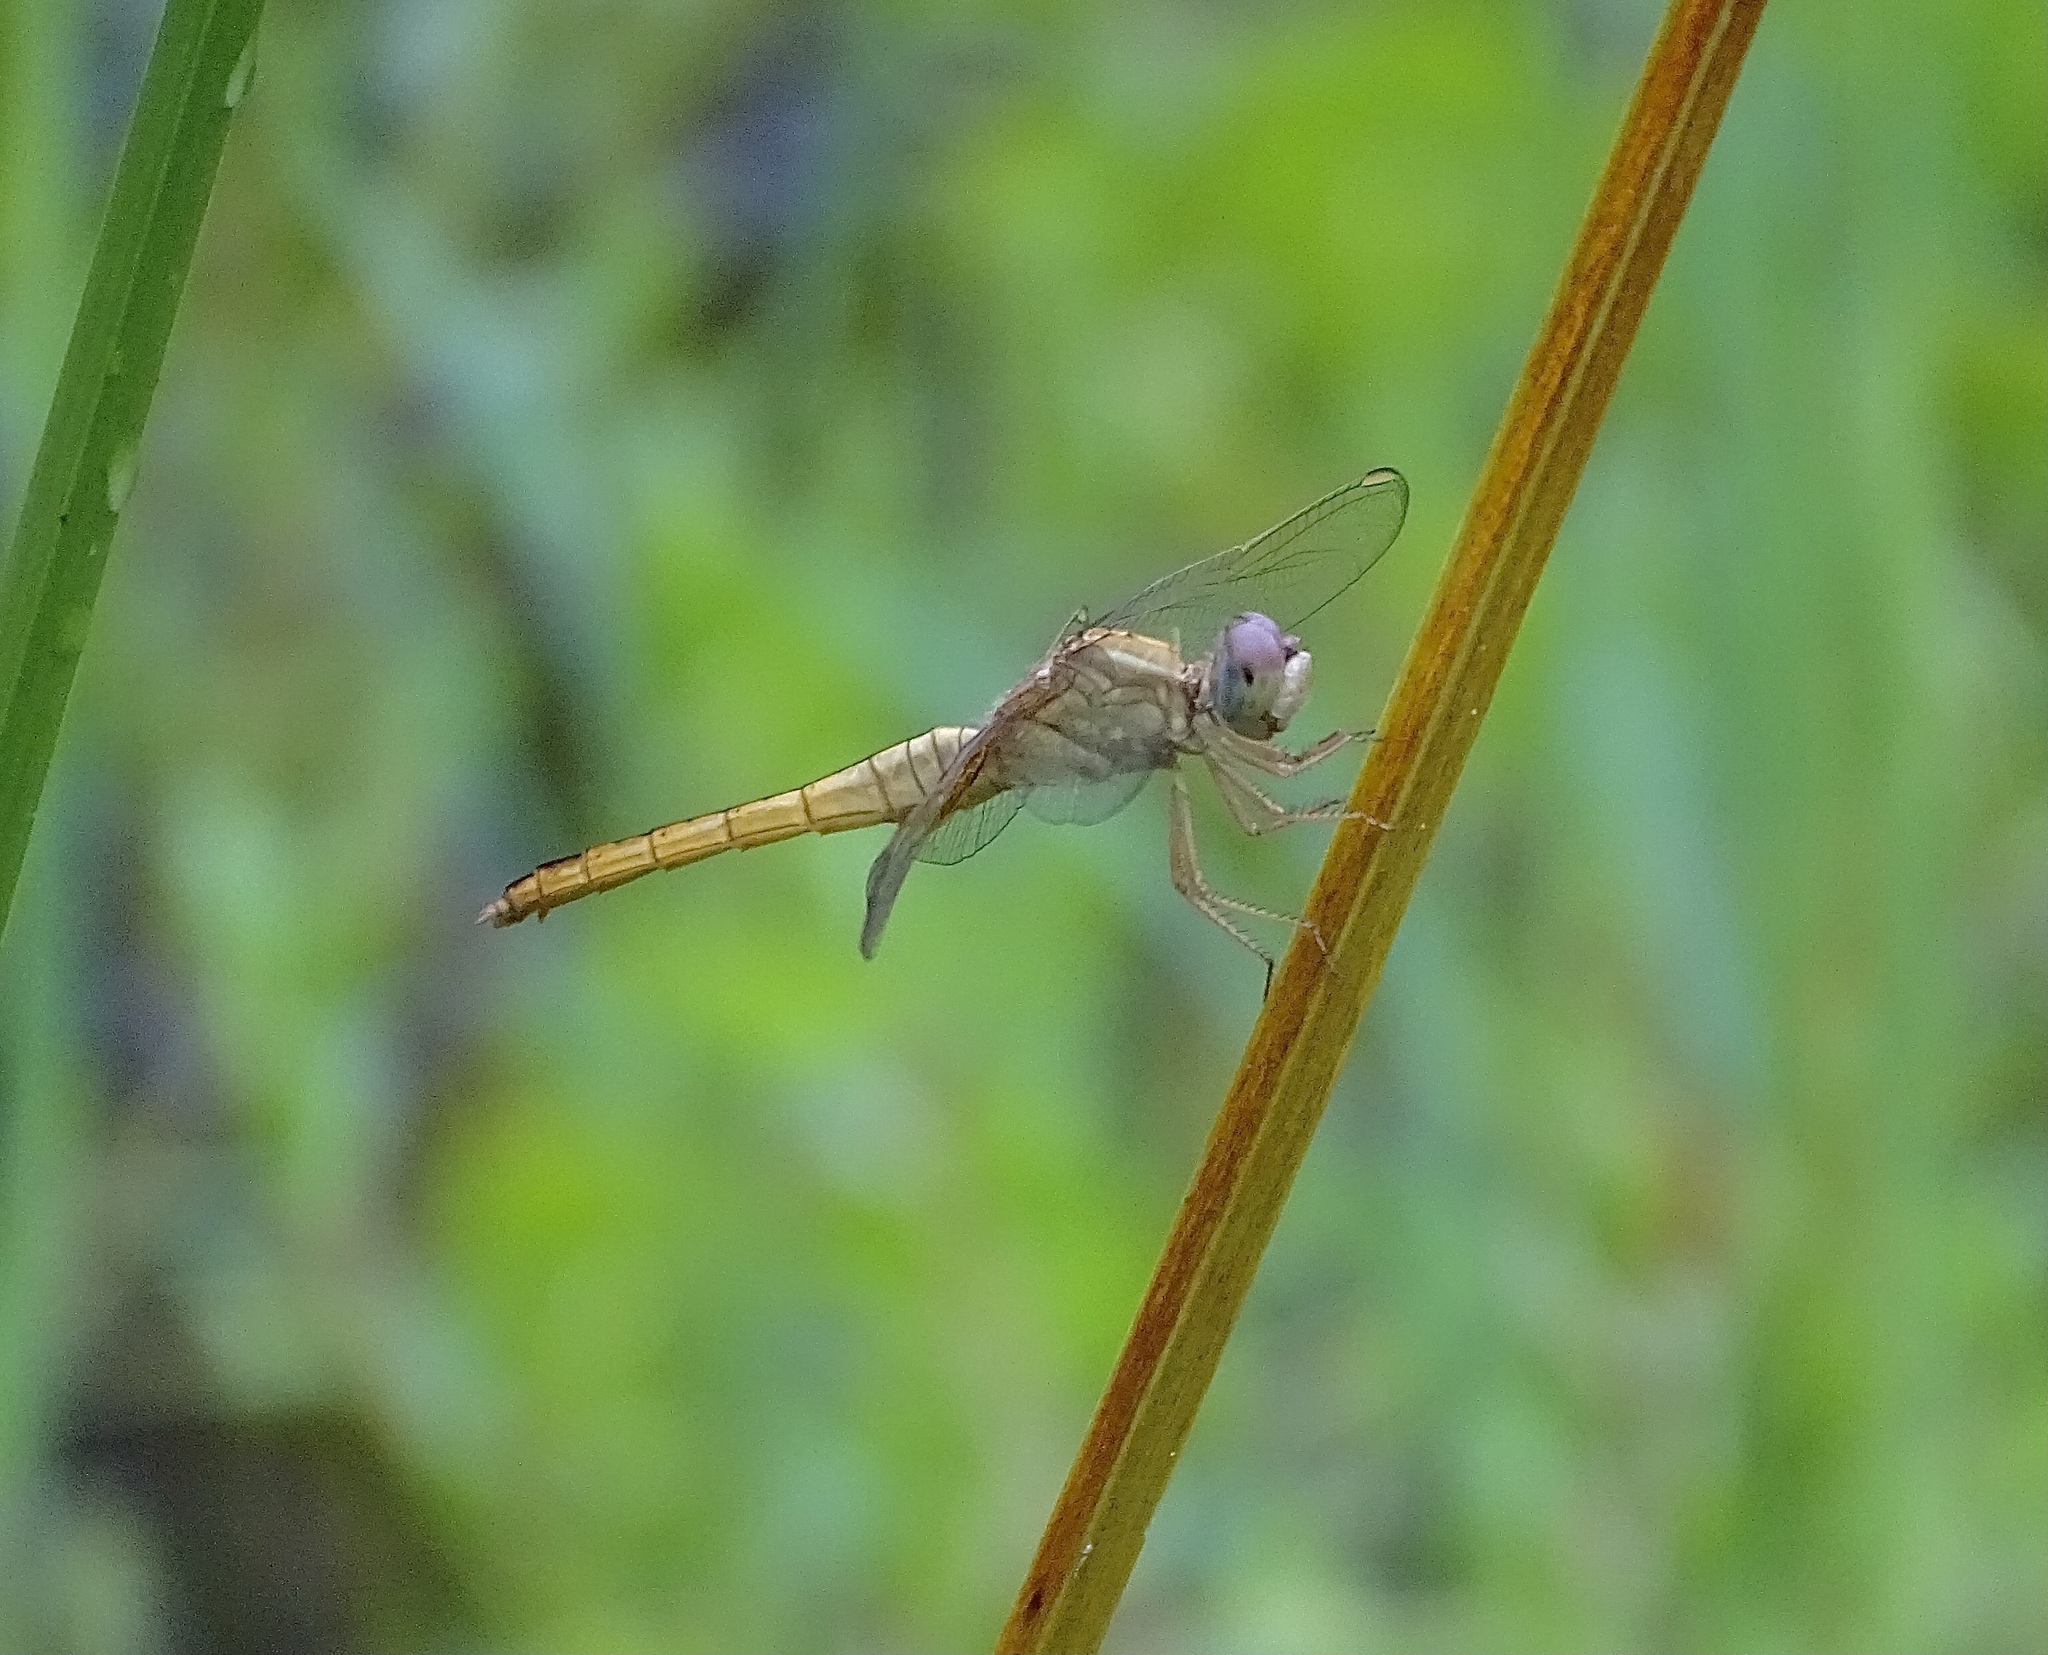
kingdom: Animalia
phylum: Arthropoda
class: Insecta
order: Odonata
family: Libellulidae
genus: Crocothemis
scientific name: Crocothemis servilia
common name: Scarlet skimmer
